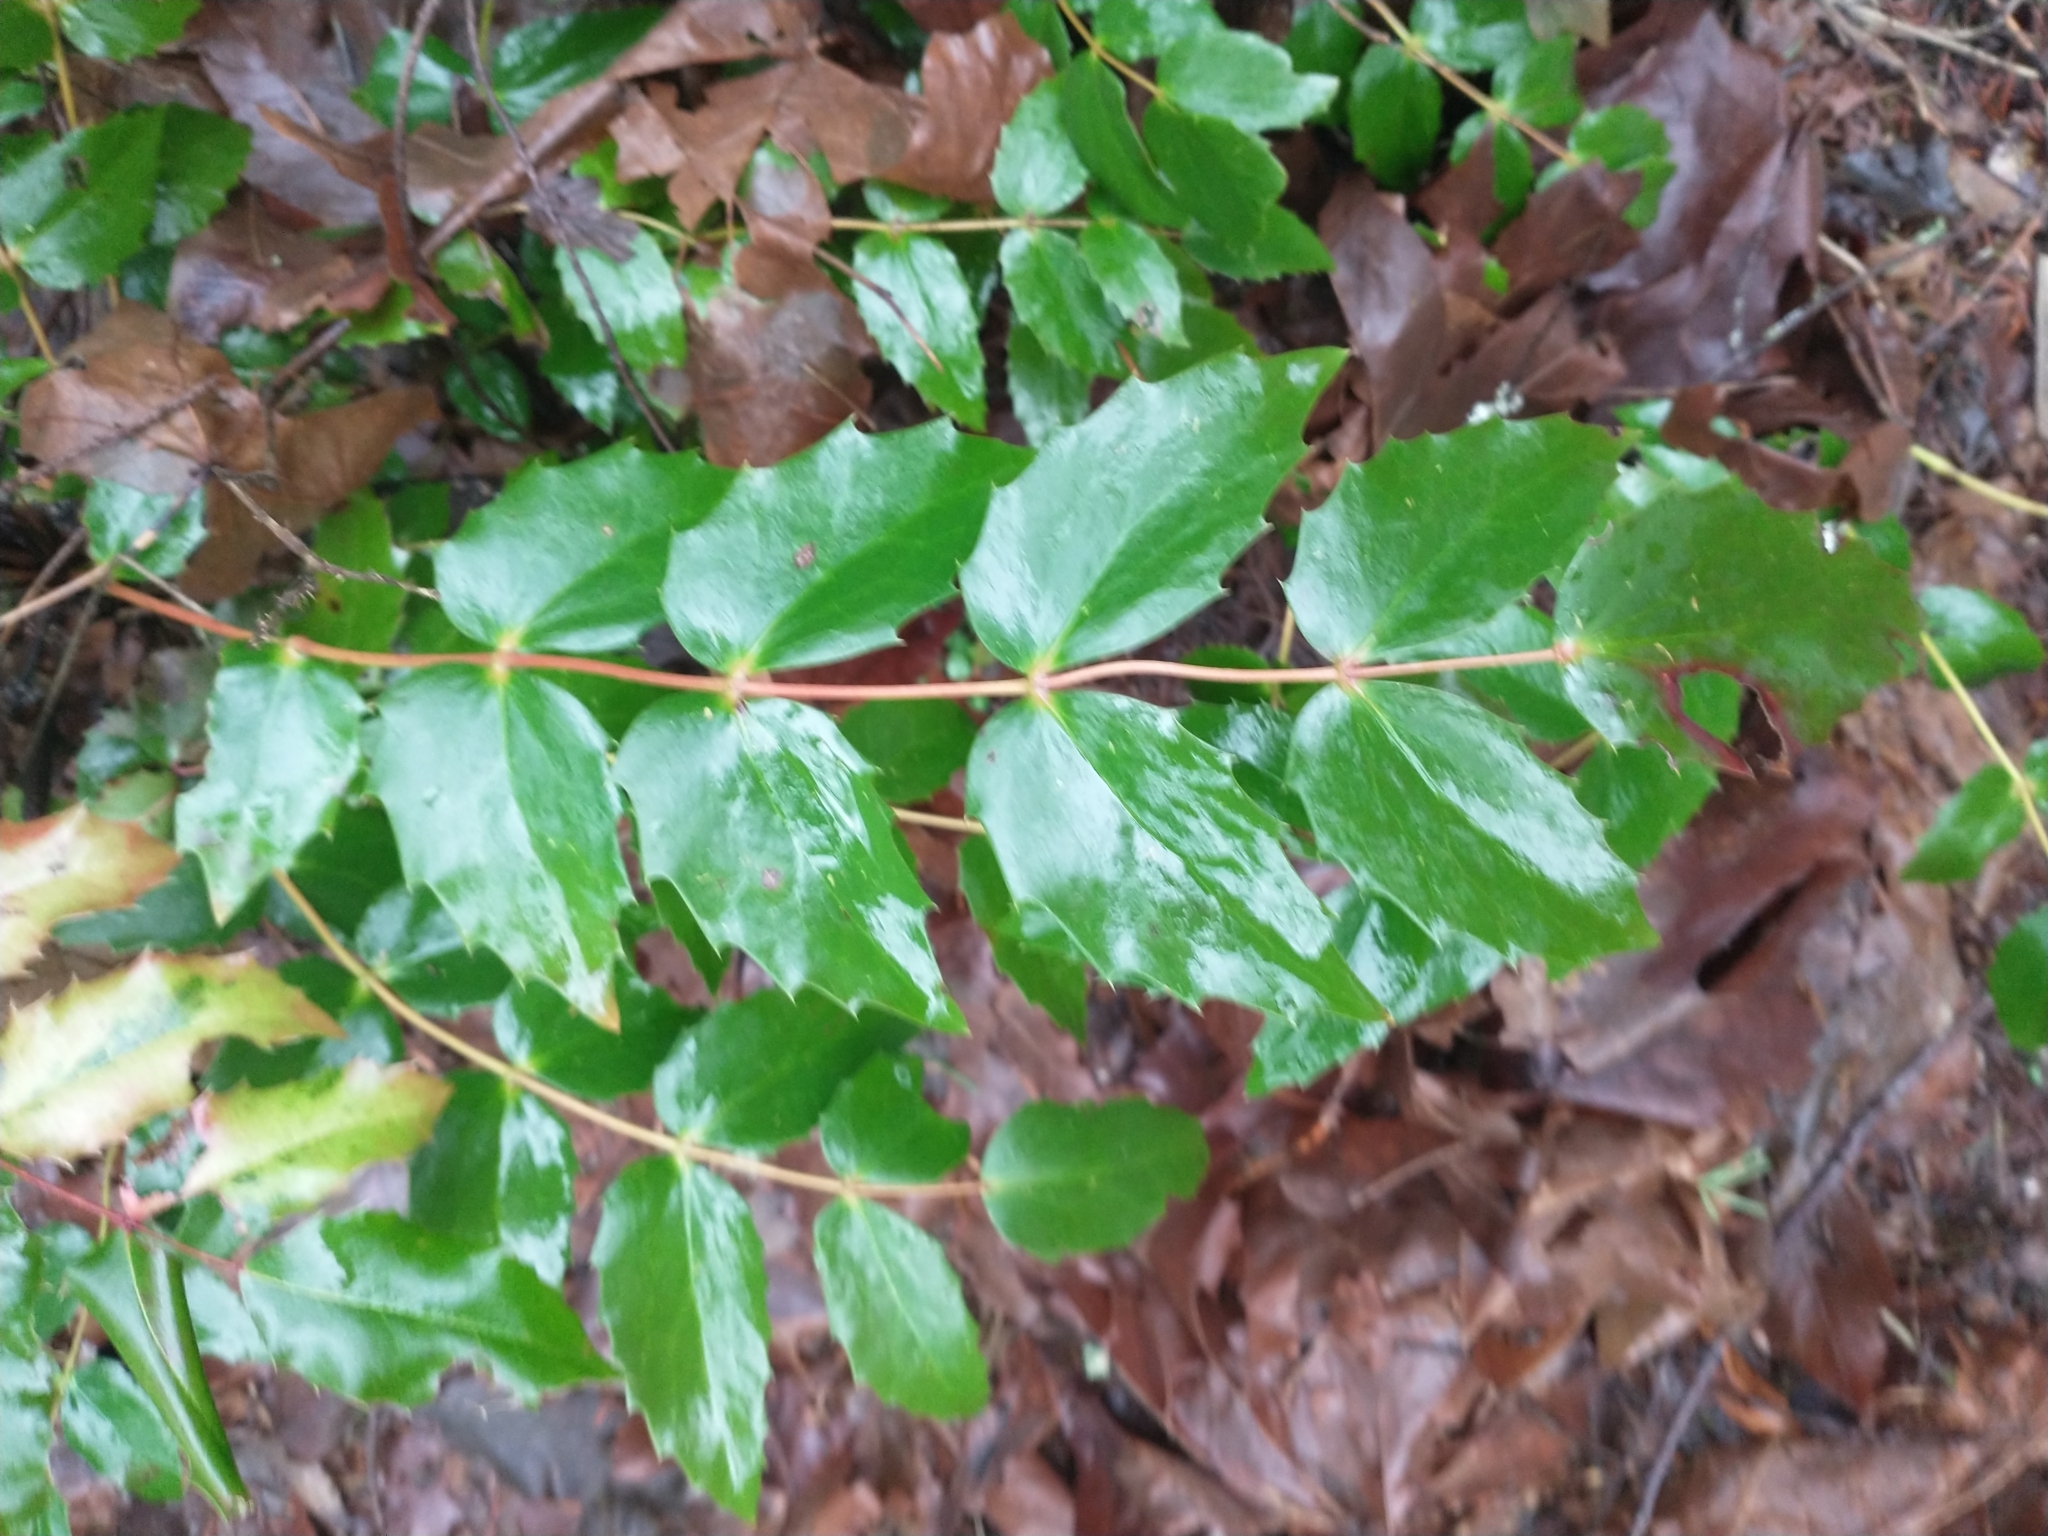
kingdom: Plantae
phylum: Tracheophyta
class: Magnoliopsida
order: Ranunculales
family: Berberidaceae
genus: Mahonia
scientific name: Mahonia nervosa
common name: Cascade oregon-grape
